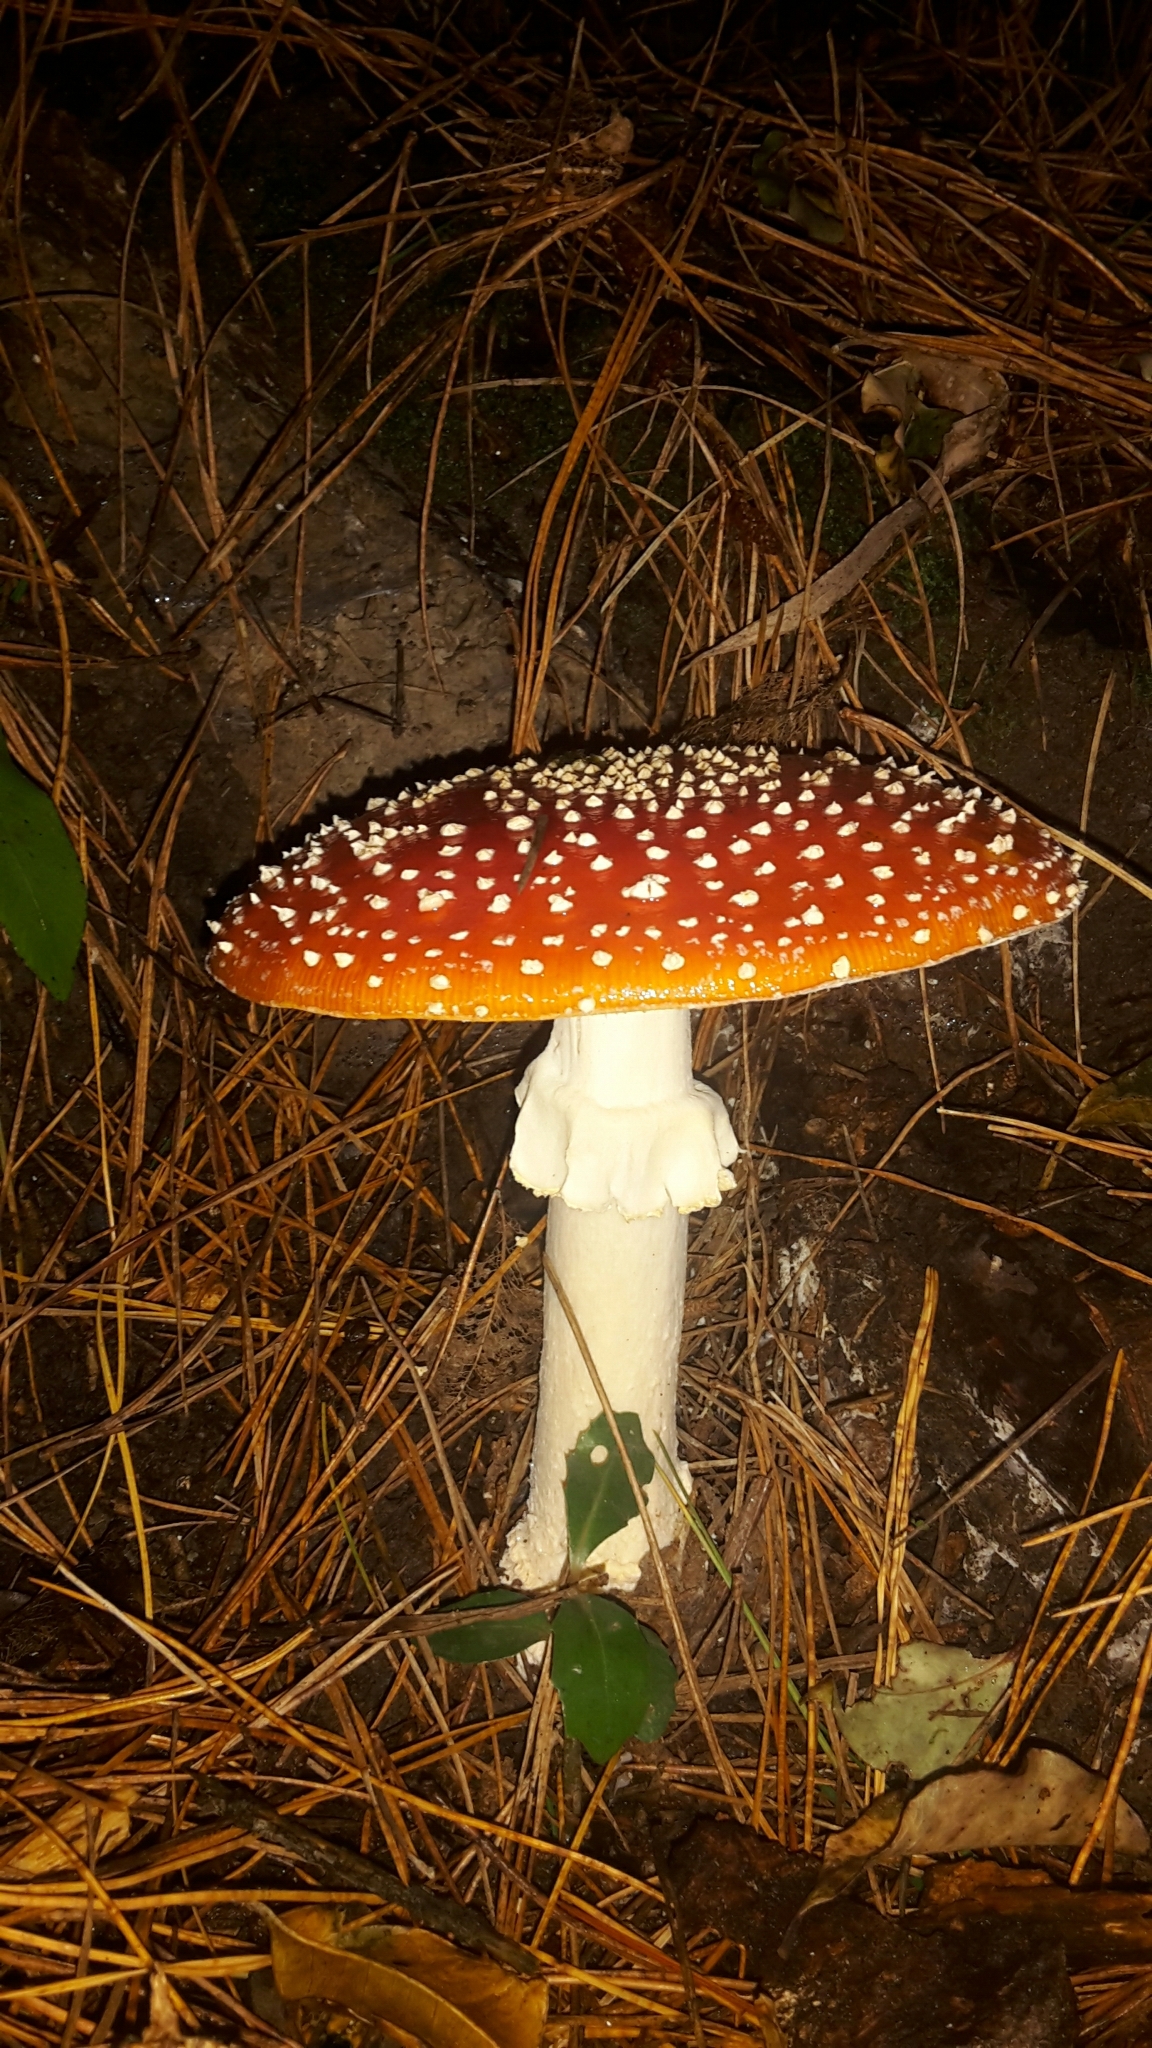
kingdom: Fungi
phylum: Basidiomycota
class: Agaricomycetes
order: Agaricales
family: Amanitaceae
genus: Amanita
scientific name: Amanita muscaria
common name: Fly agaric
